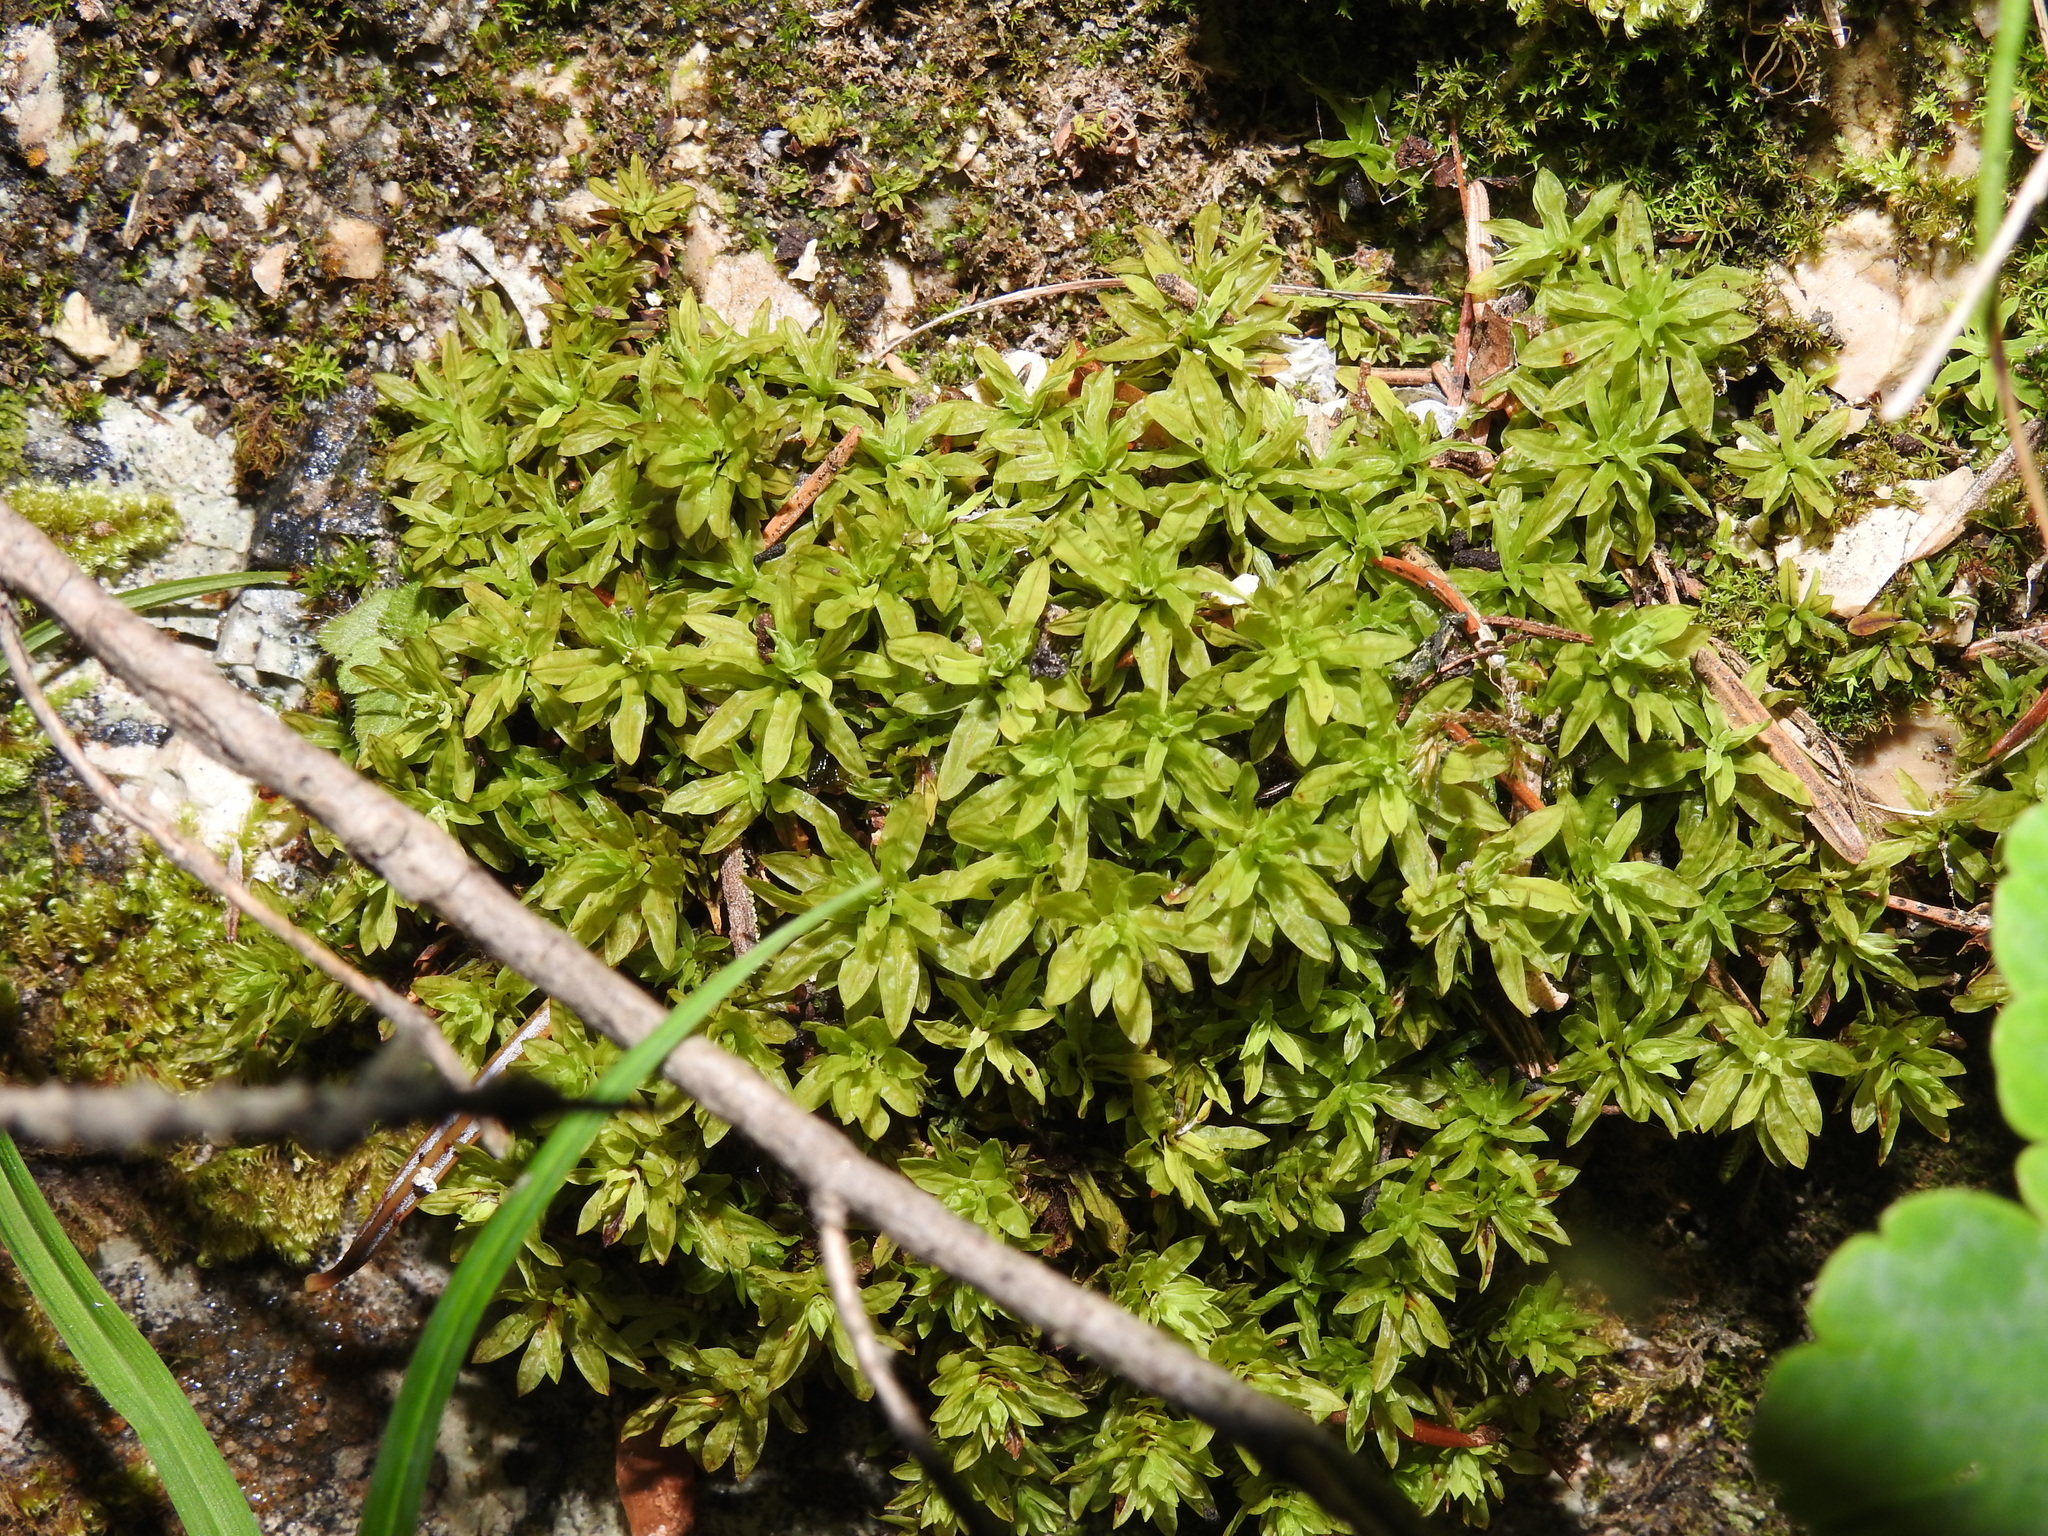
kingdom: Plantae
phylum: Bryophyta
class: Bryopsida
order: Encalyptales
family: Encalyptaceae
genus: Encalypta
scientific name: Encalypta streptocarpa
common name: Spiral extinguisher-moss
